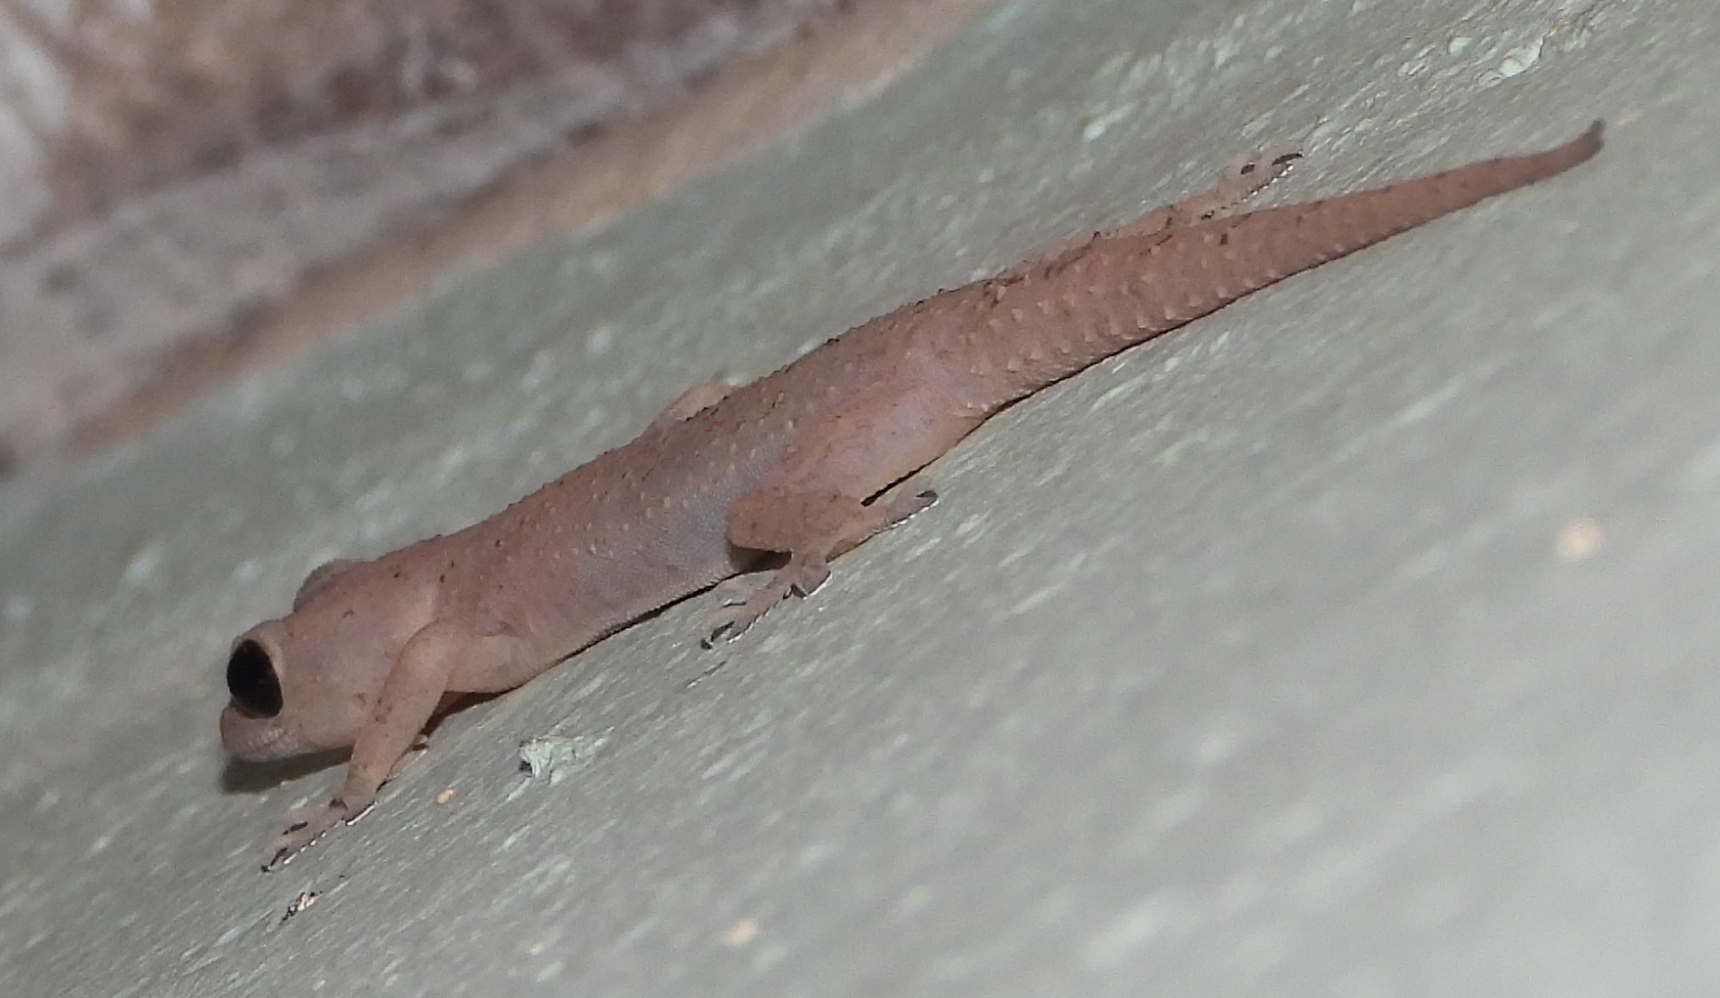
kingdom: Animalia
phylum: Chordata
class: Squamata
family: Gekkonidae
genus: Hemidactylus
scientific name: Hemidactylus mabouia
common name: House gecko
